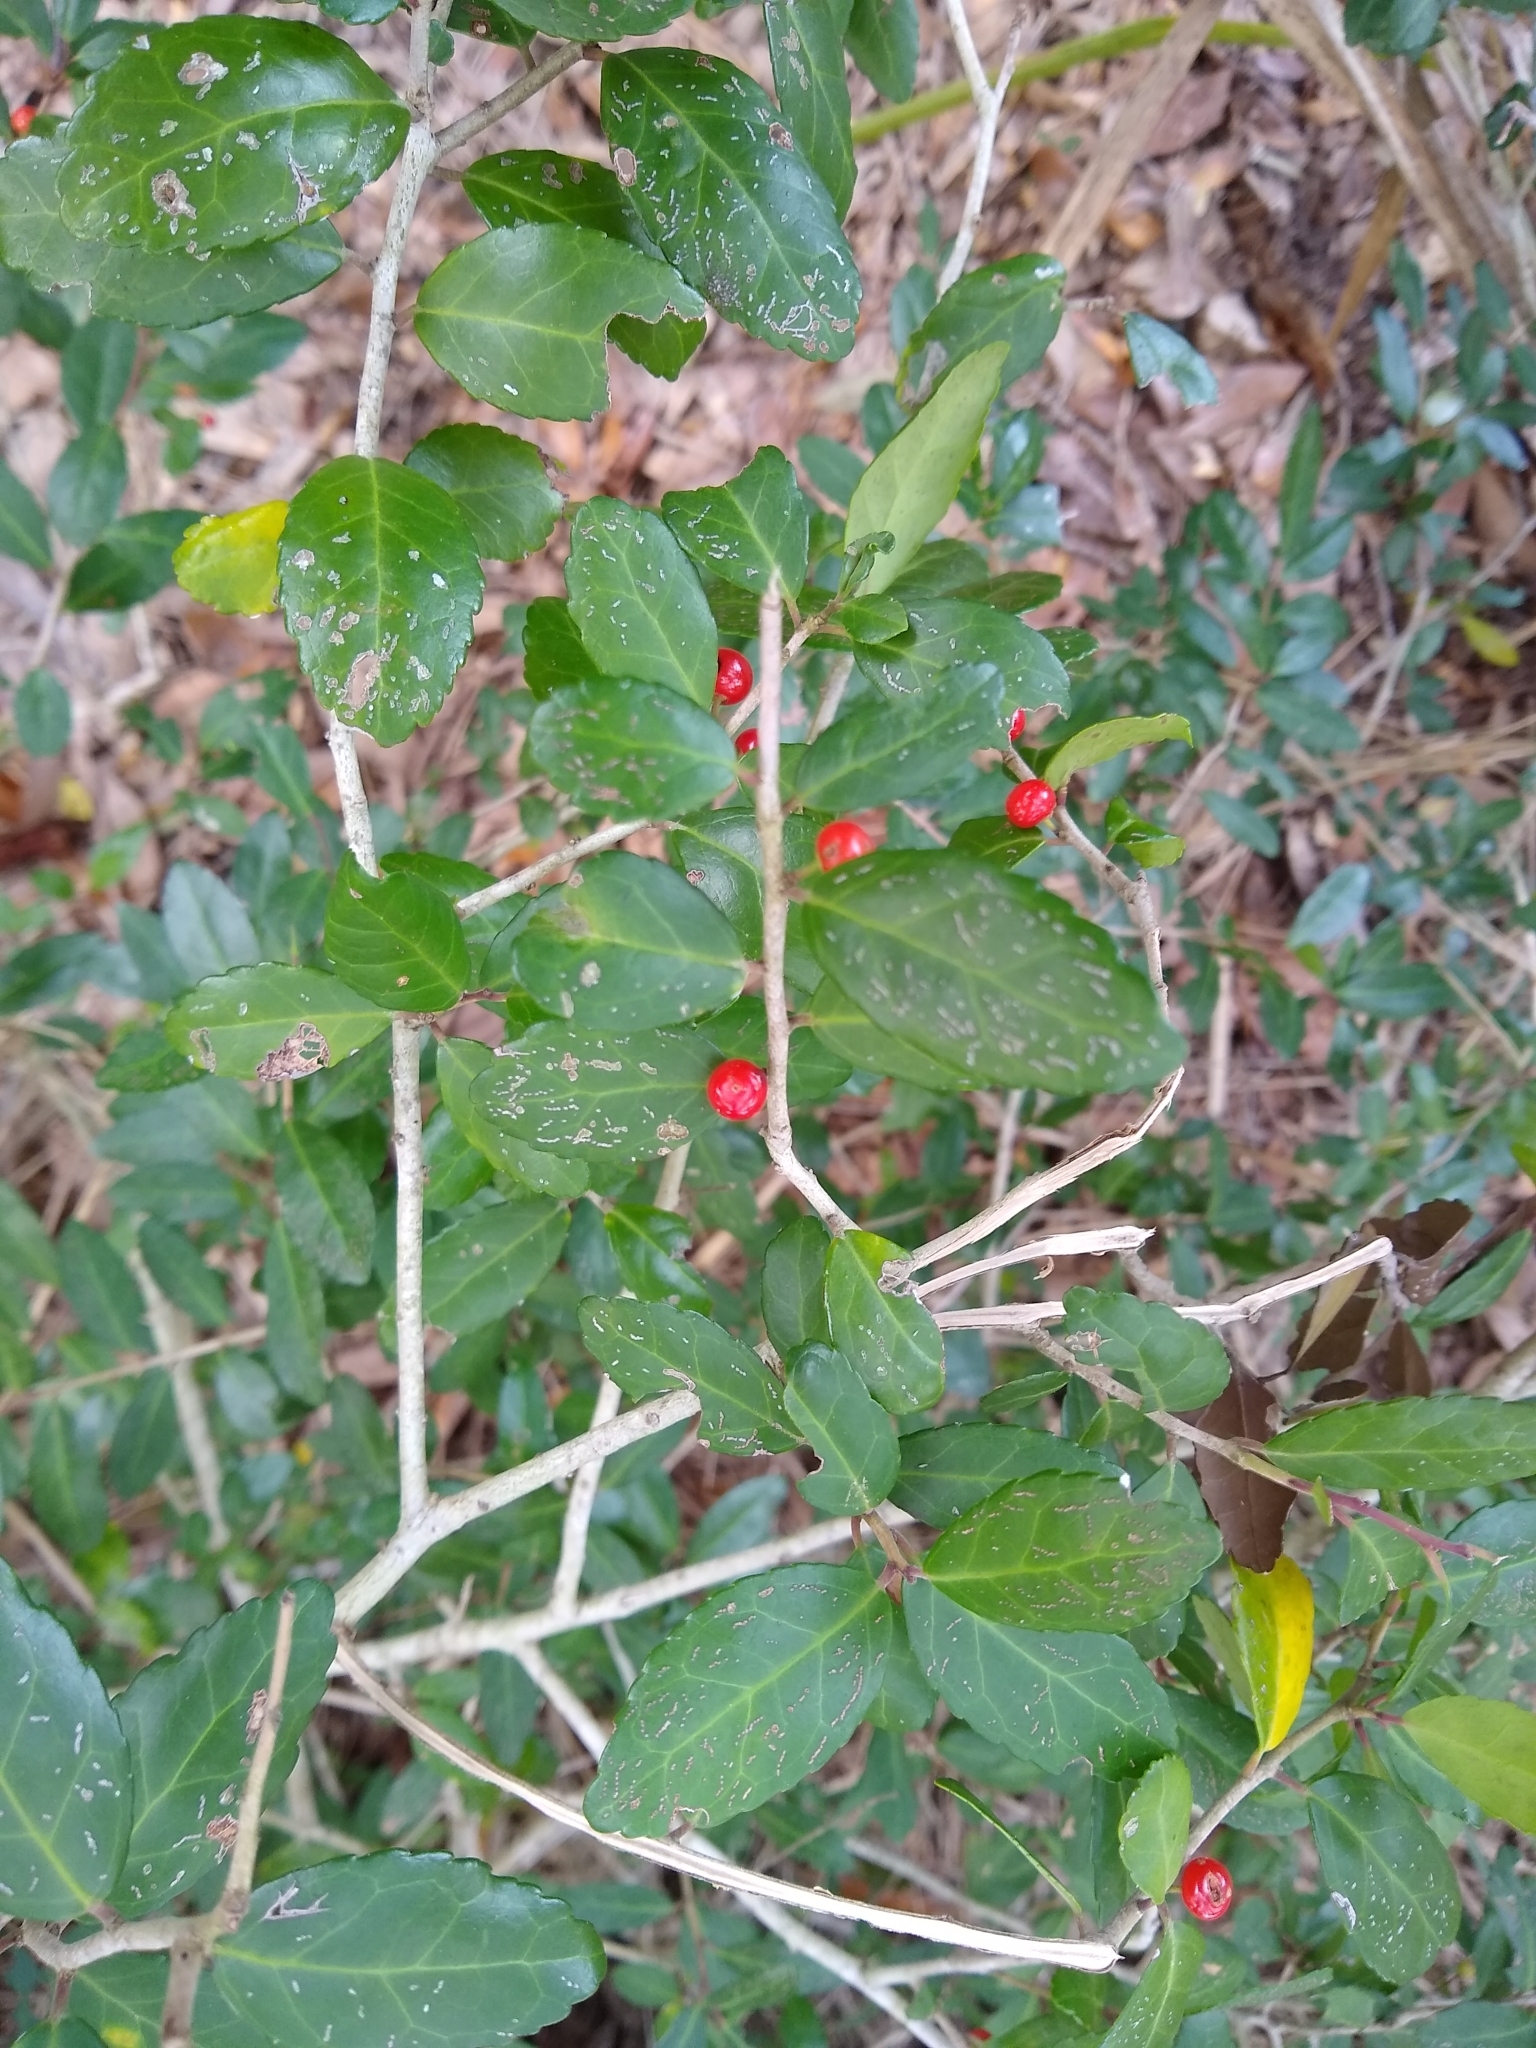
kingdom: Plantae
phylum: Tracheophyta
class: Magnoliopsida
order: Aquifoliales
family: Aquifoliaceae
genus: Ilex
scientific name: Ilex vomitoria
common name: Yaupon holly
